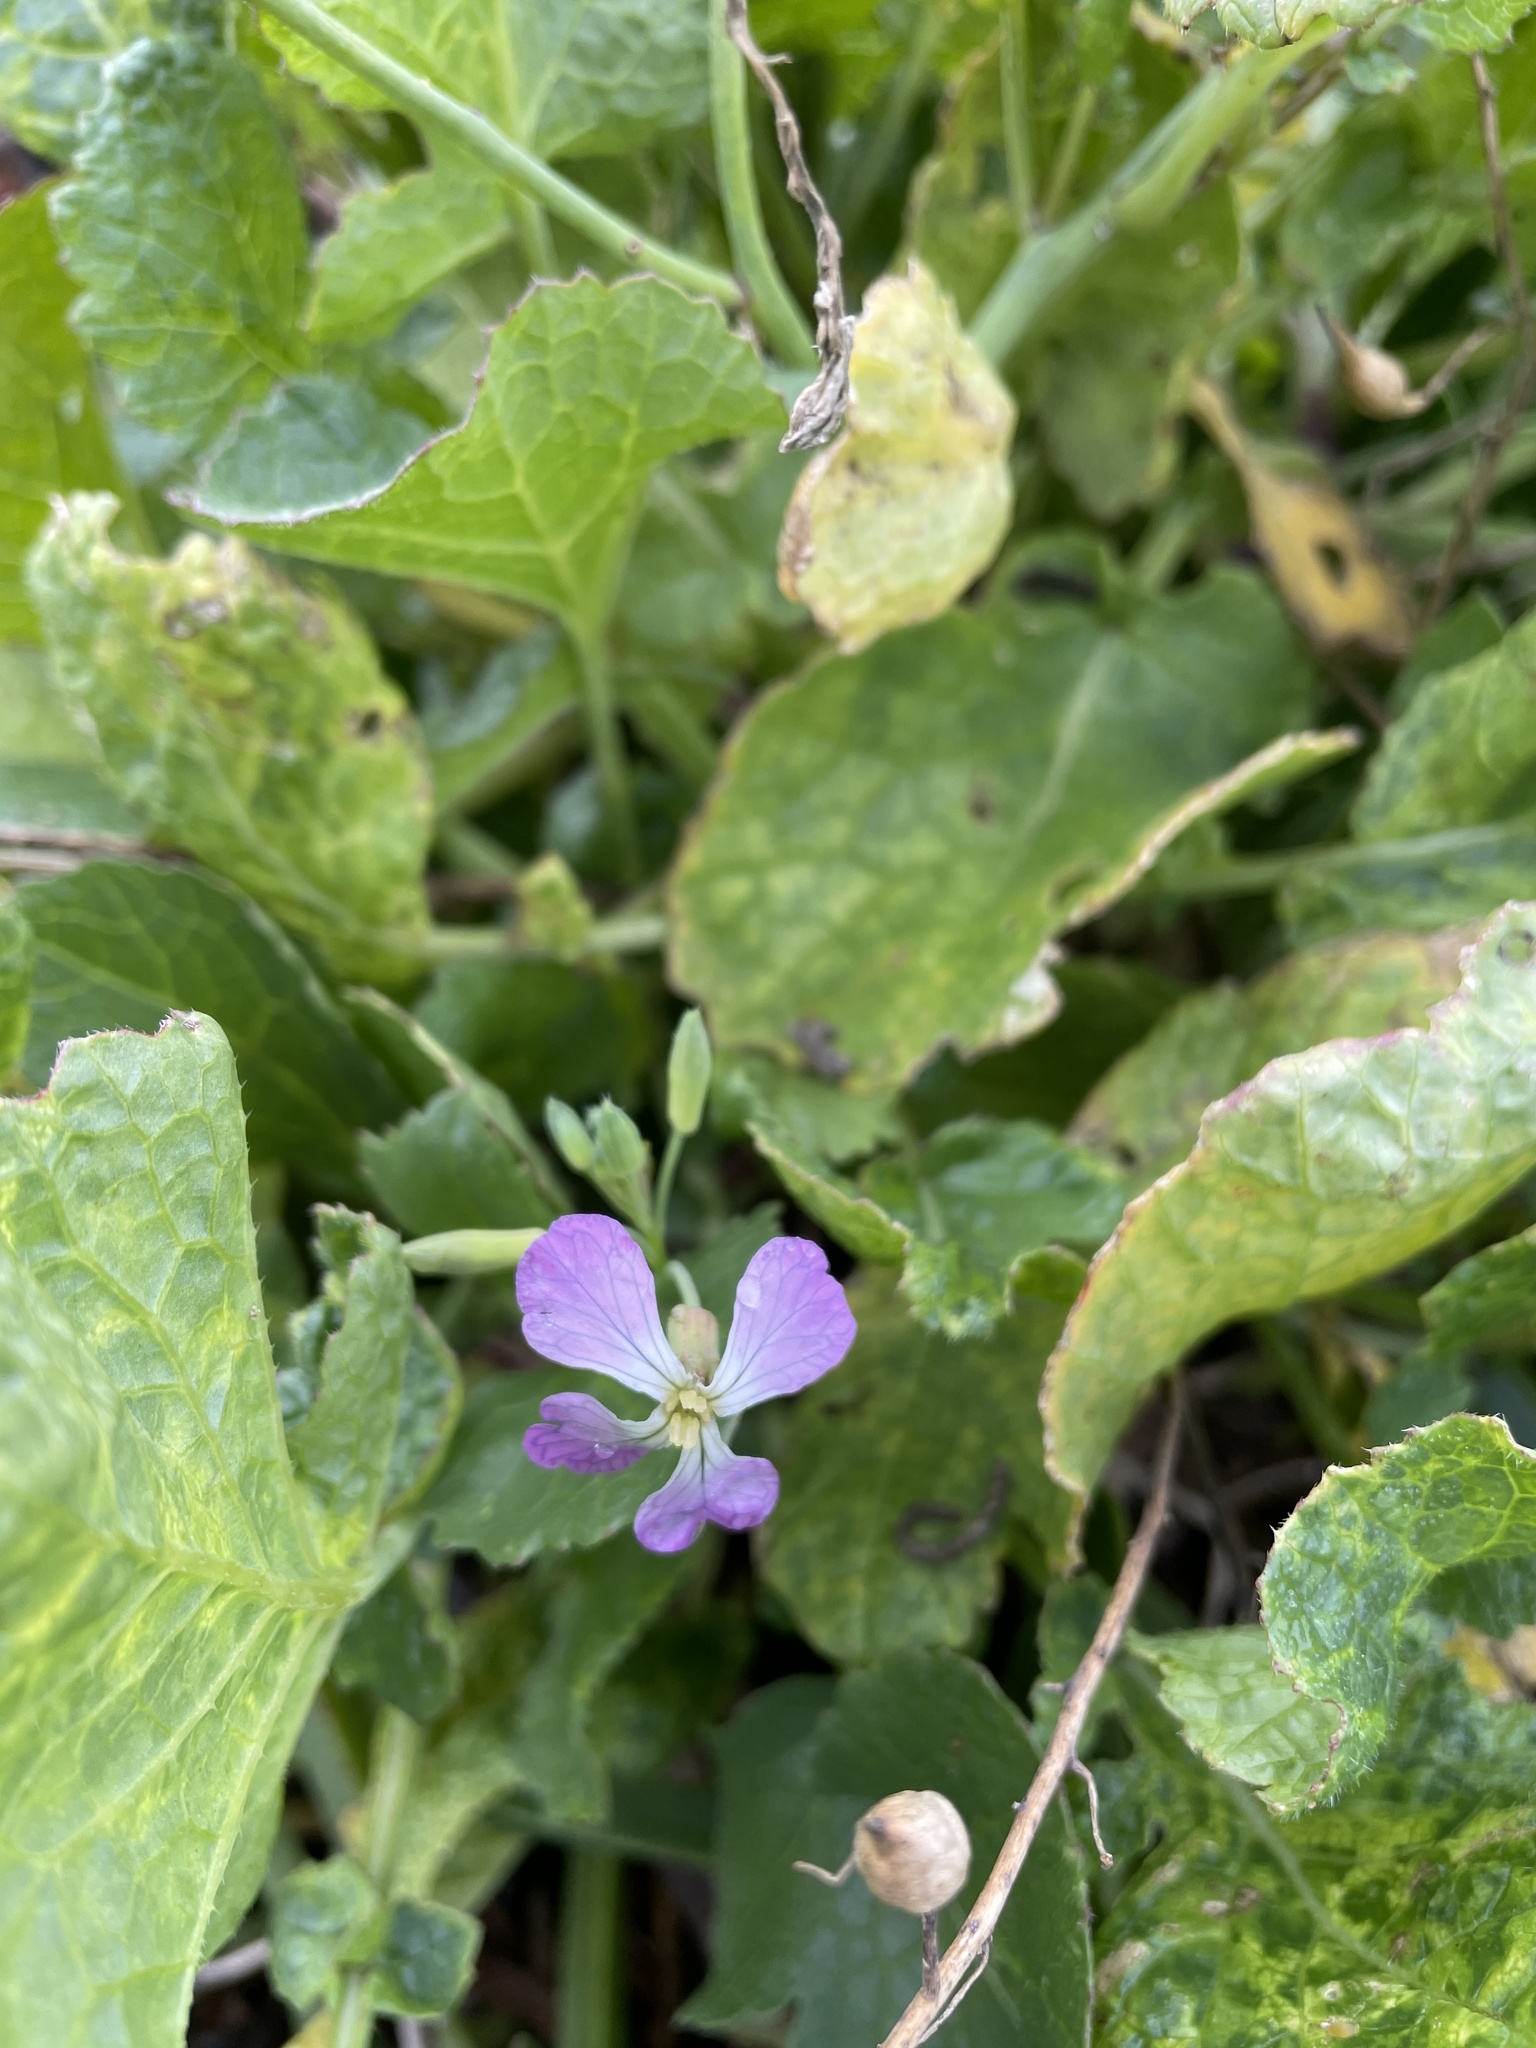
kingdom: Plantae
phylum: Tracheophyta
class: Magnoliopsida
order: Brassicales
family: Brassicaceae
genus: Raphanus
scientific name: Raphanus sativus
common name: Cultivated radish
